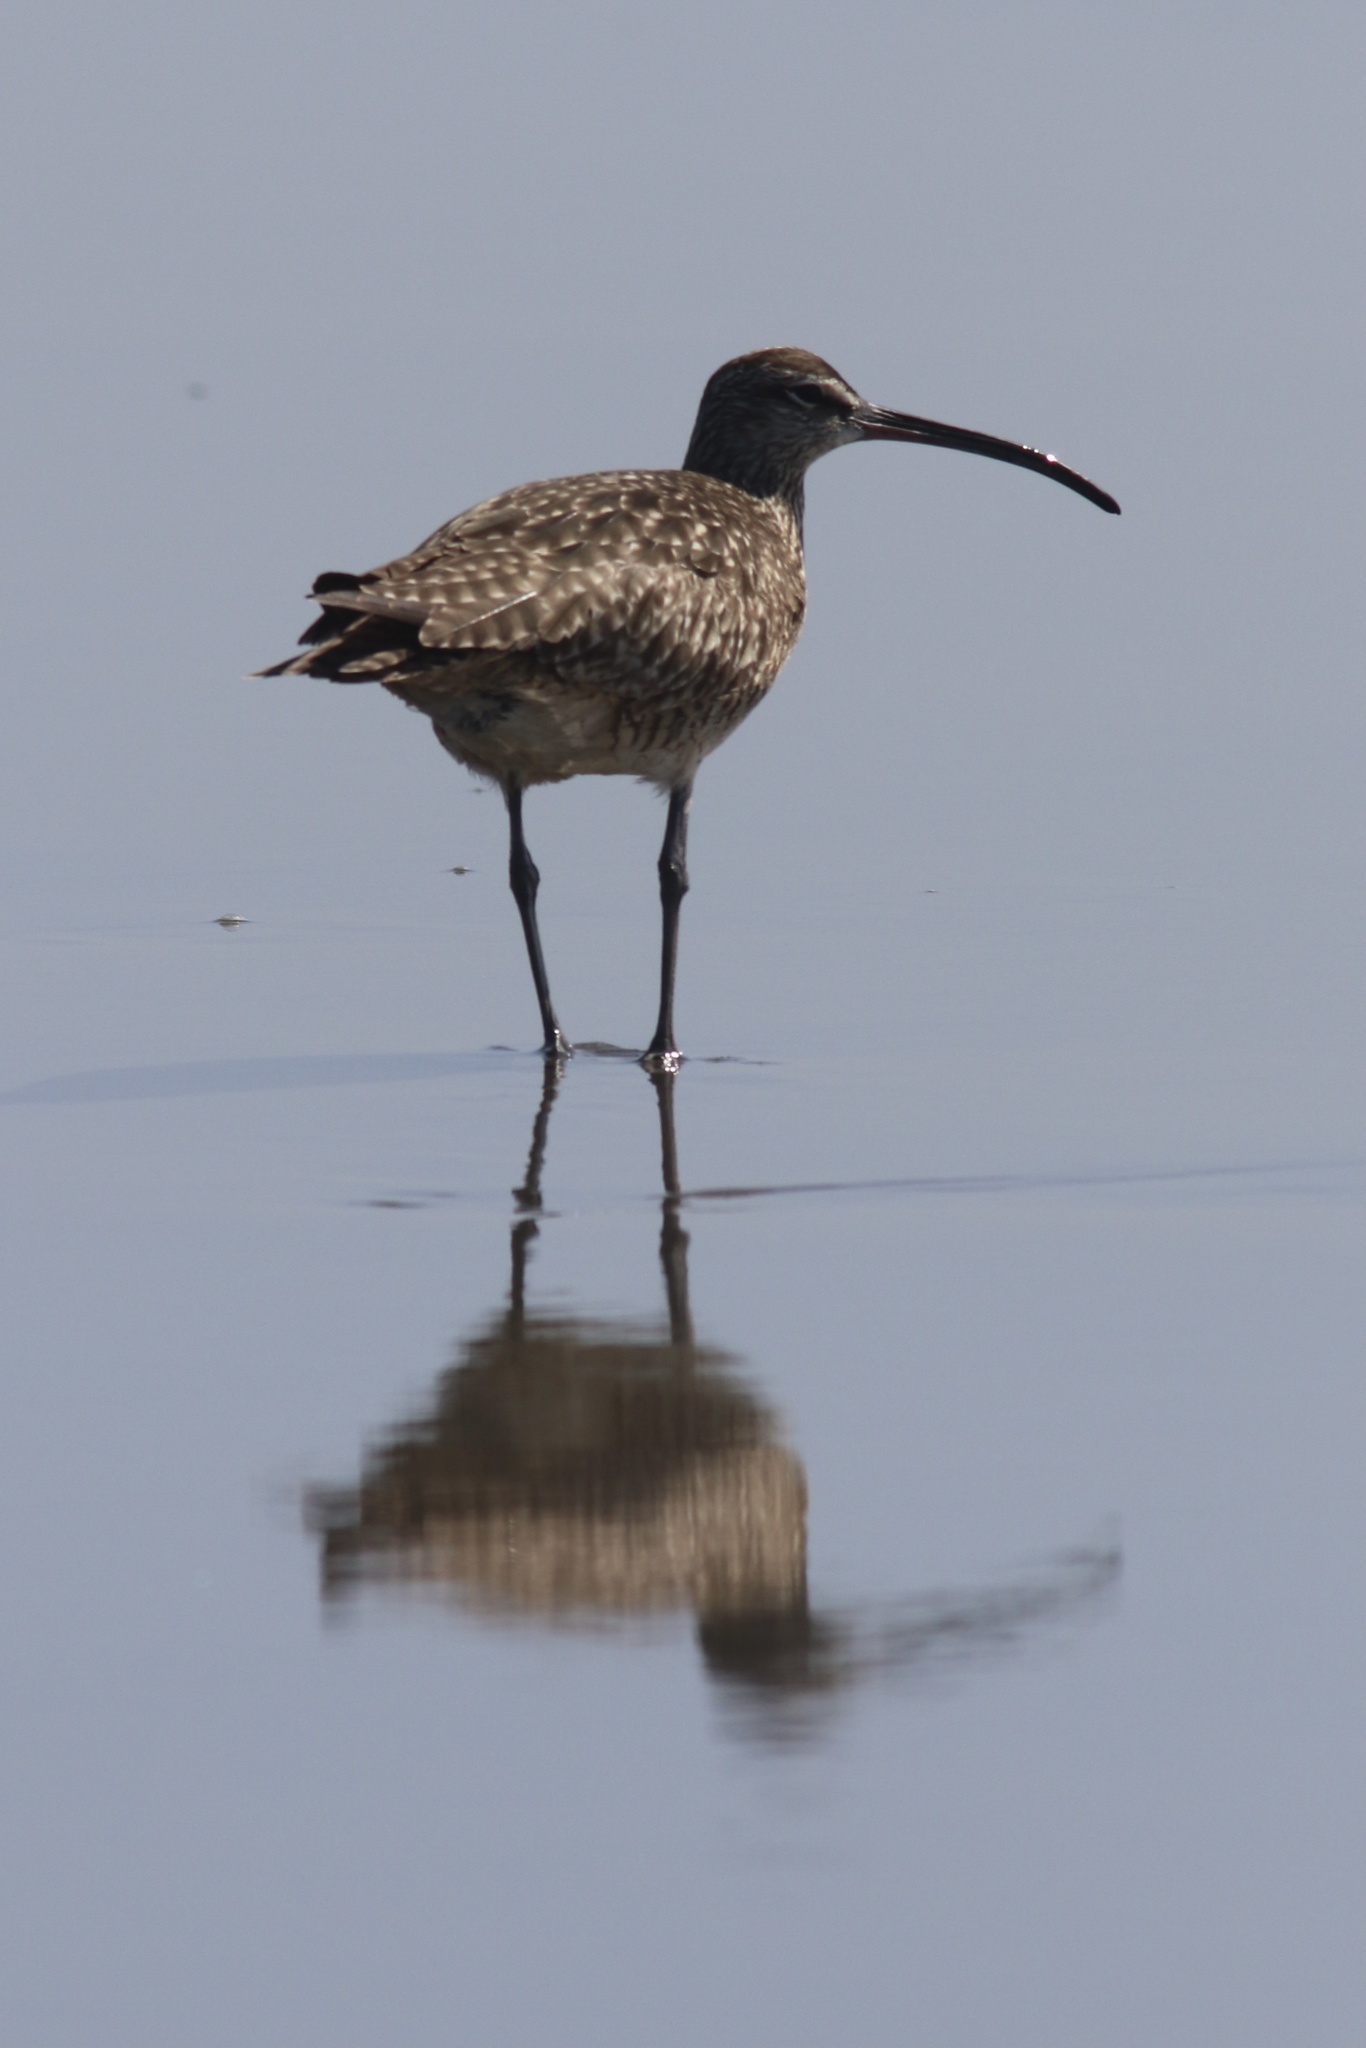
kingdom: Animalia
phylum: Chordata
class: Aves
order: Charadriiformes
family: Scolopacidae
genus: Numenius
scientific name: Numenius phaeopus
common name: Whimbrel
